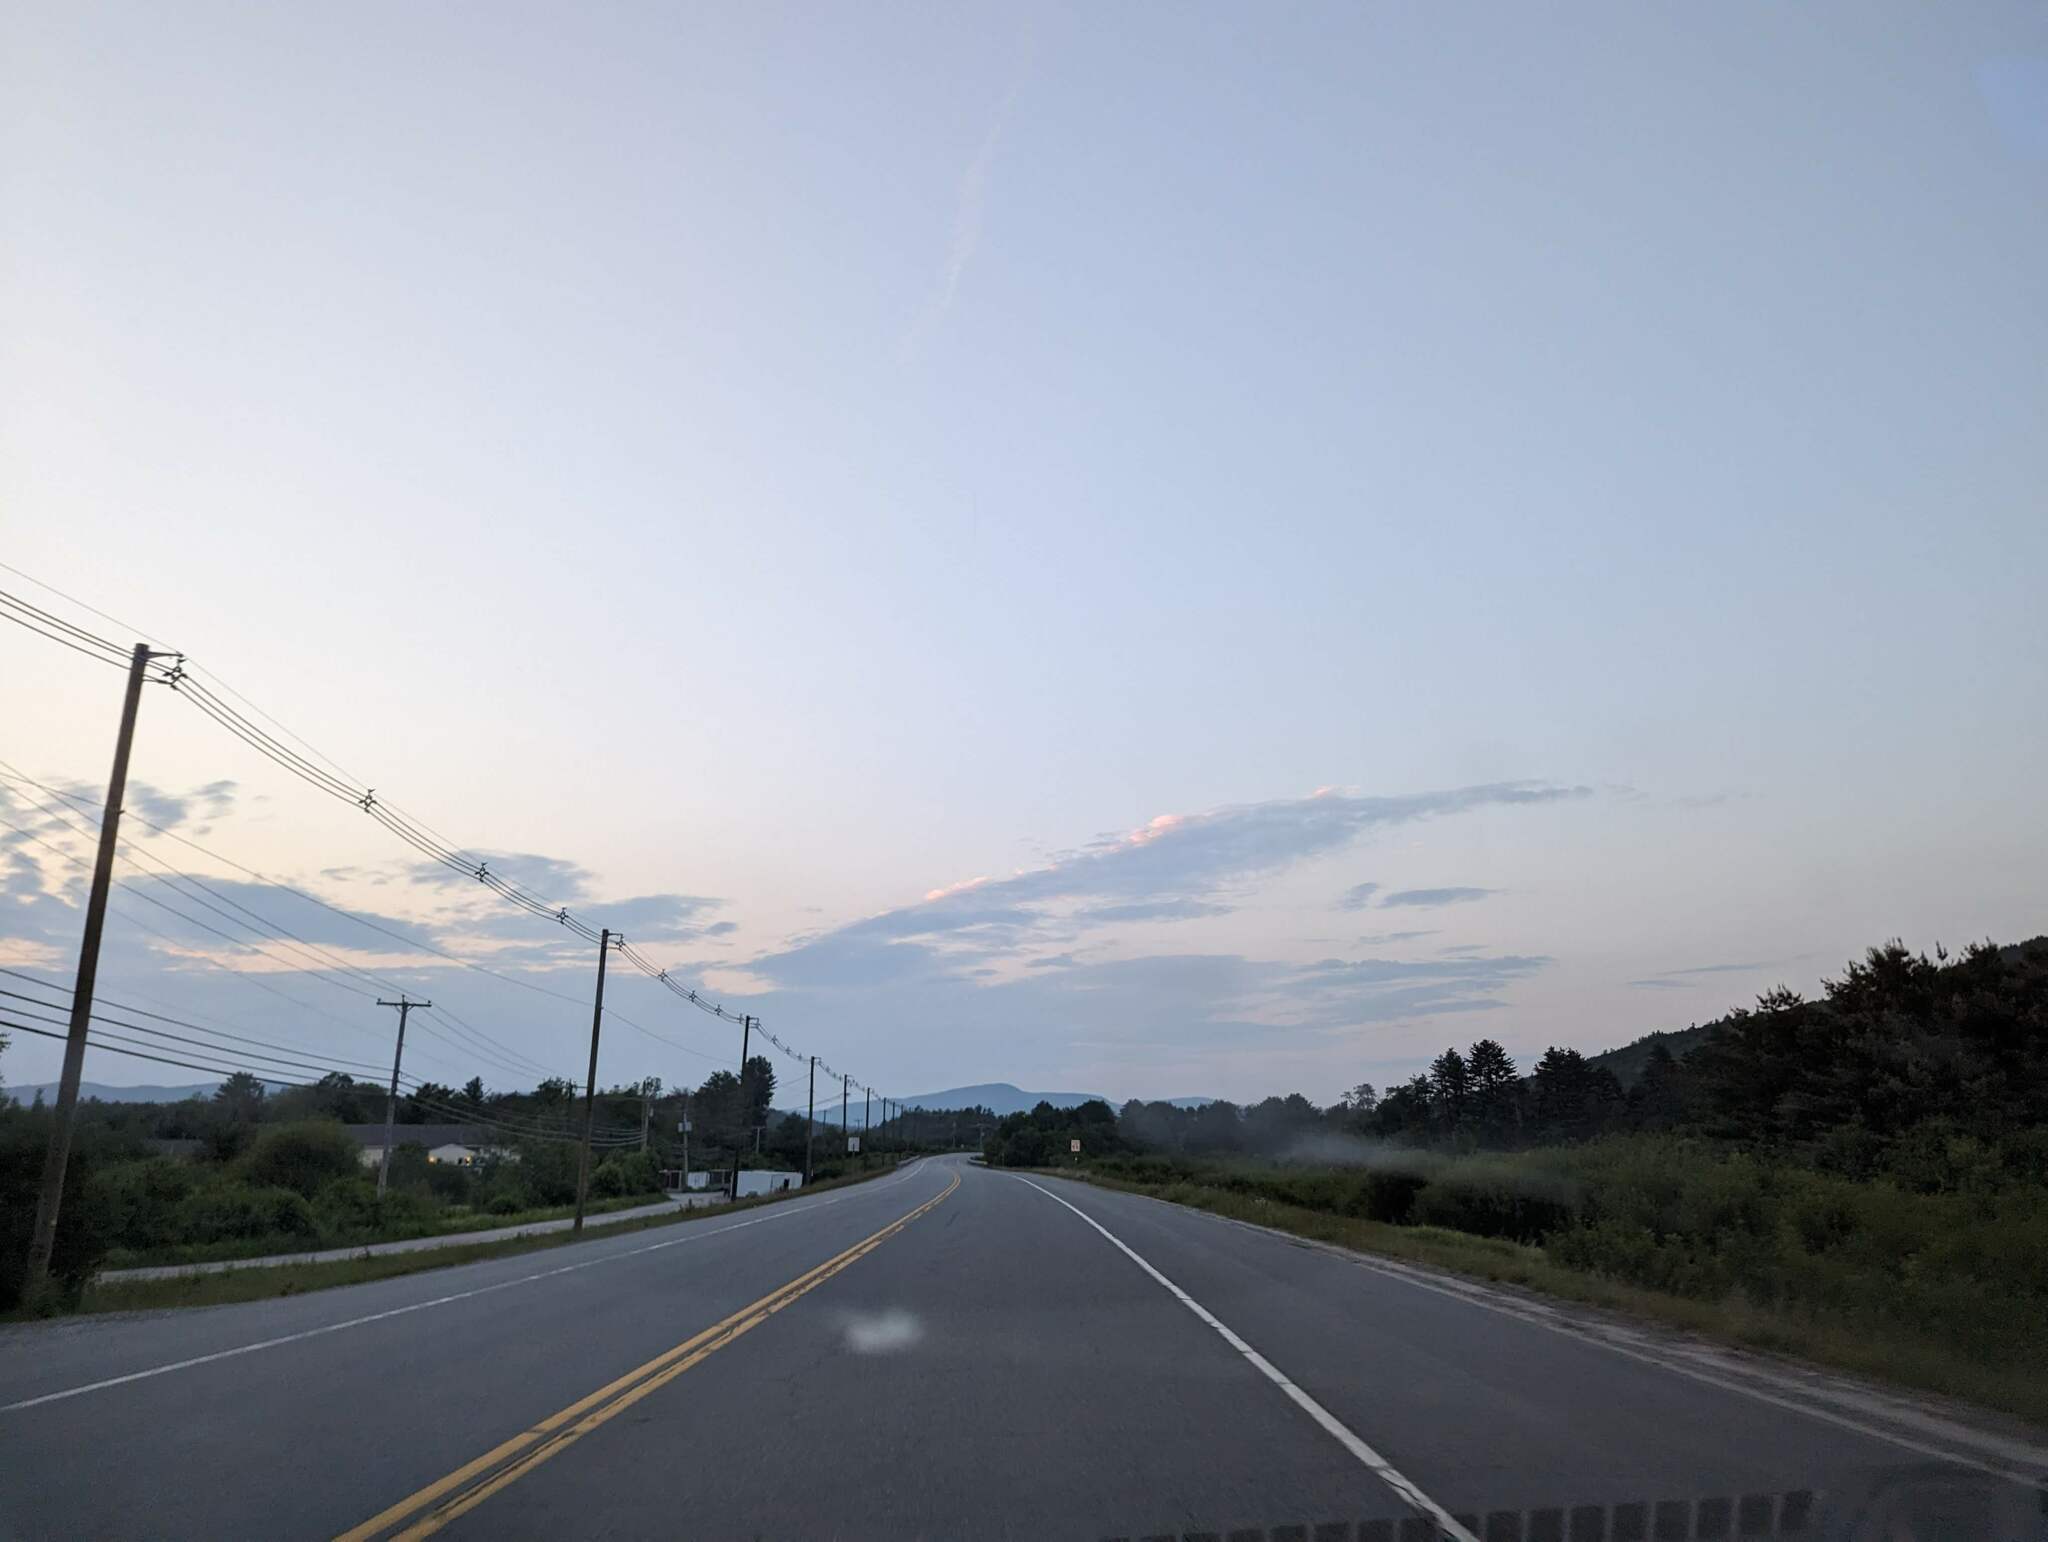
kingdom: Plantae
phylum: Tracheophyta
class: Pinopsida
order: Pinales
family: Pinaceae
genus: Pinus
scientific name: Pinus strobus
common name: Weymouth pine
